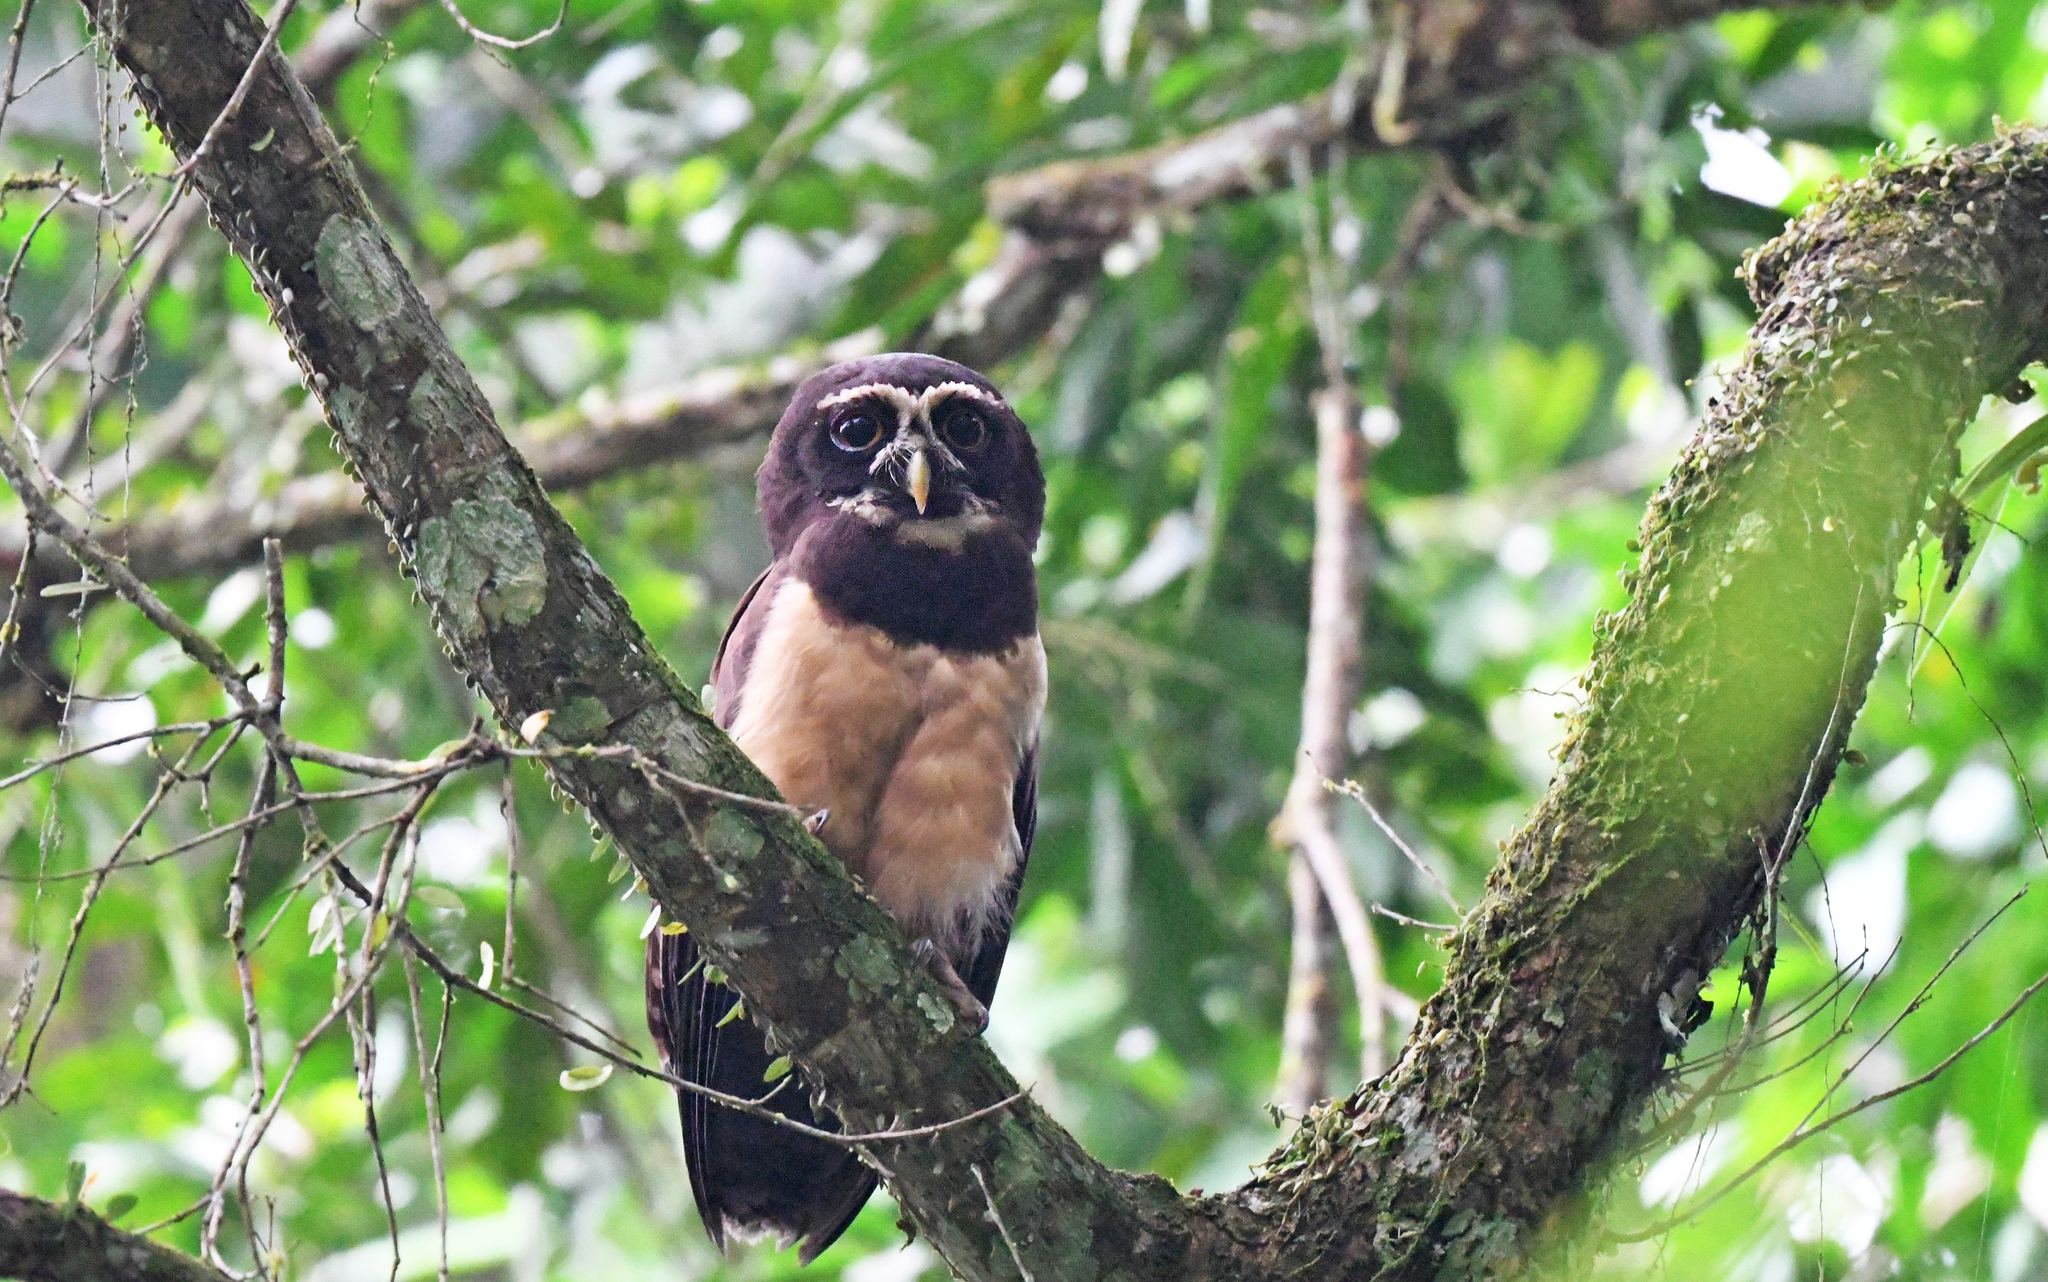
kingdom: Animalia
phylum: Chordata
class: Aves
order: Strigiformes
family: Strigidae
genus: Pulsatrix
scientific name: Pulsatrix perspicillata
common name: Spectacled owl
